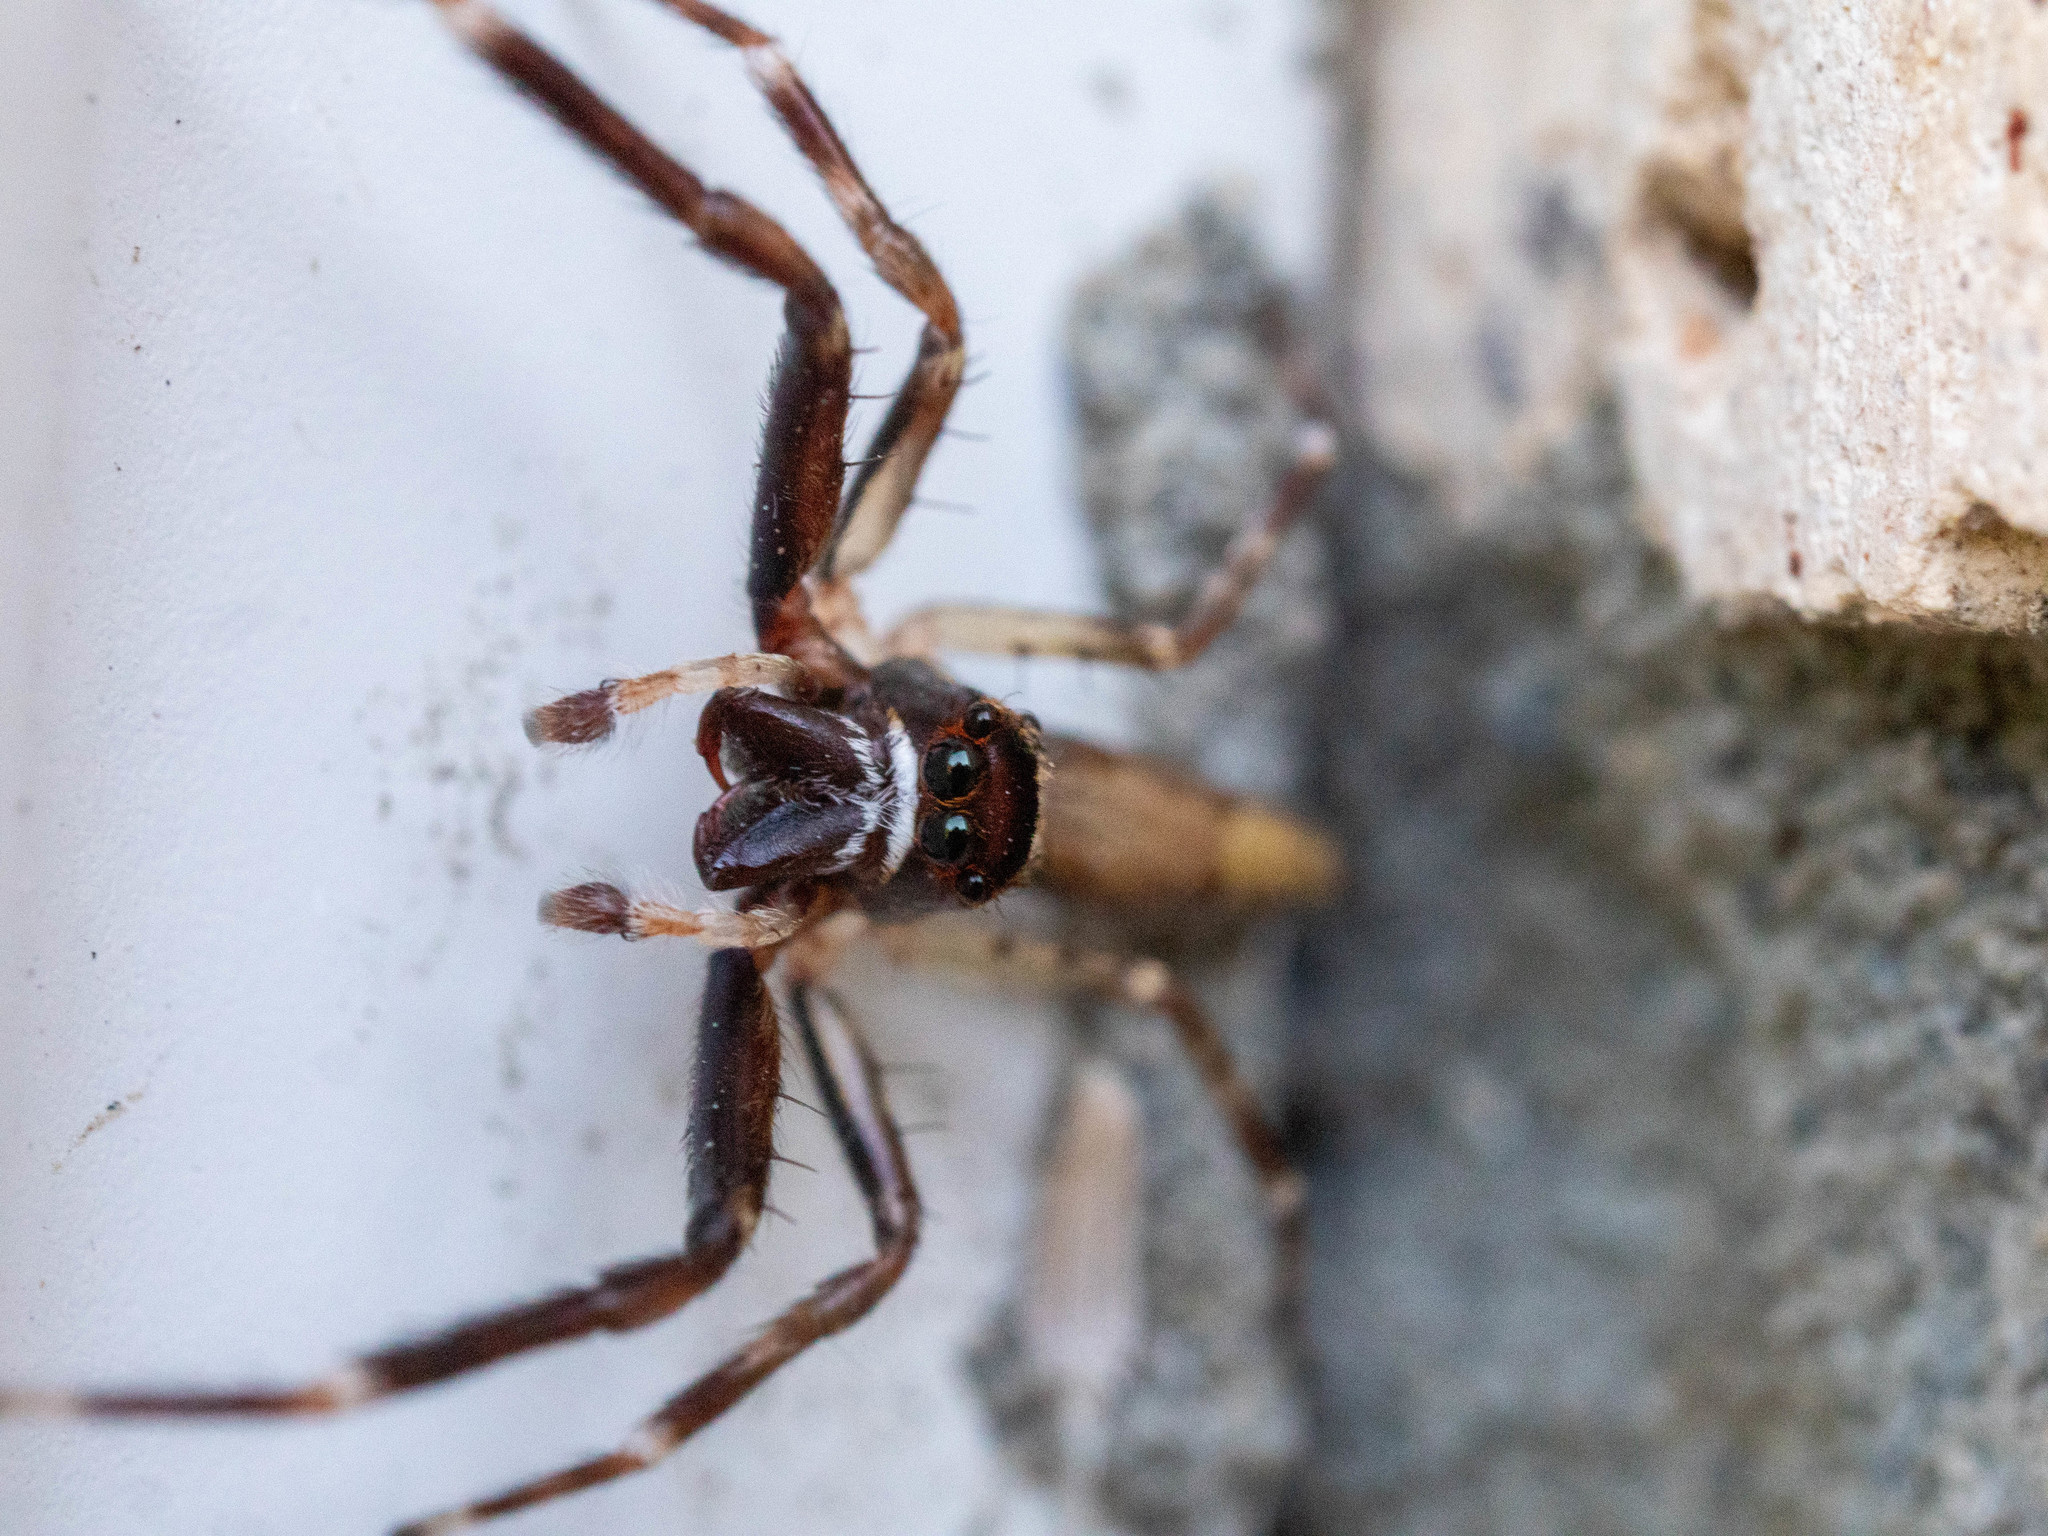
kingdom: Animalia
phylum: Arthropoda
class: Arachnida
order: Araneae
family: Salticidae
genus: Helpis
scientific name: Helpis minitabunda
